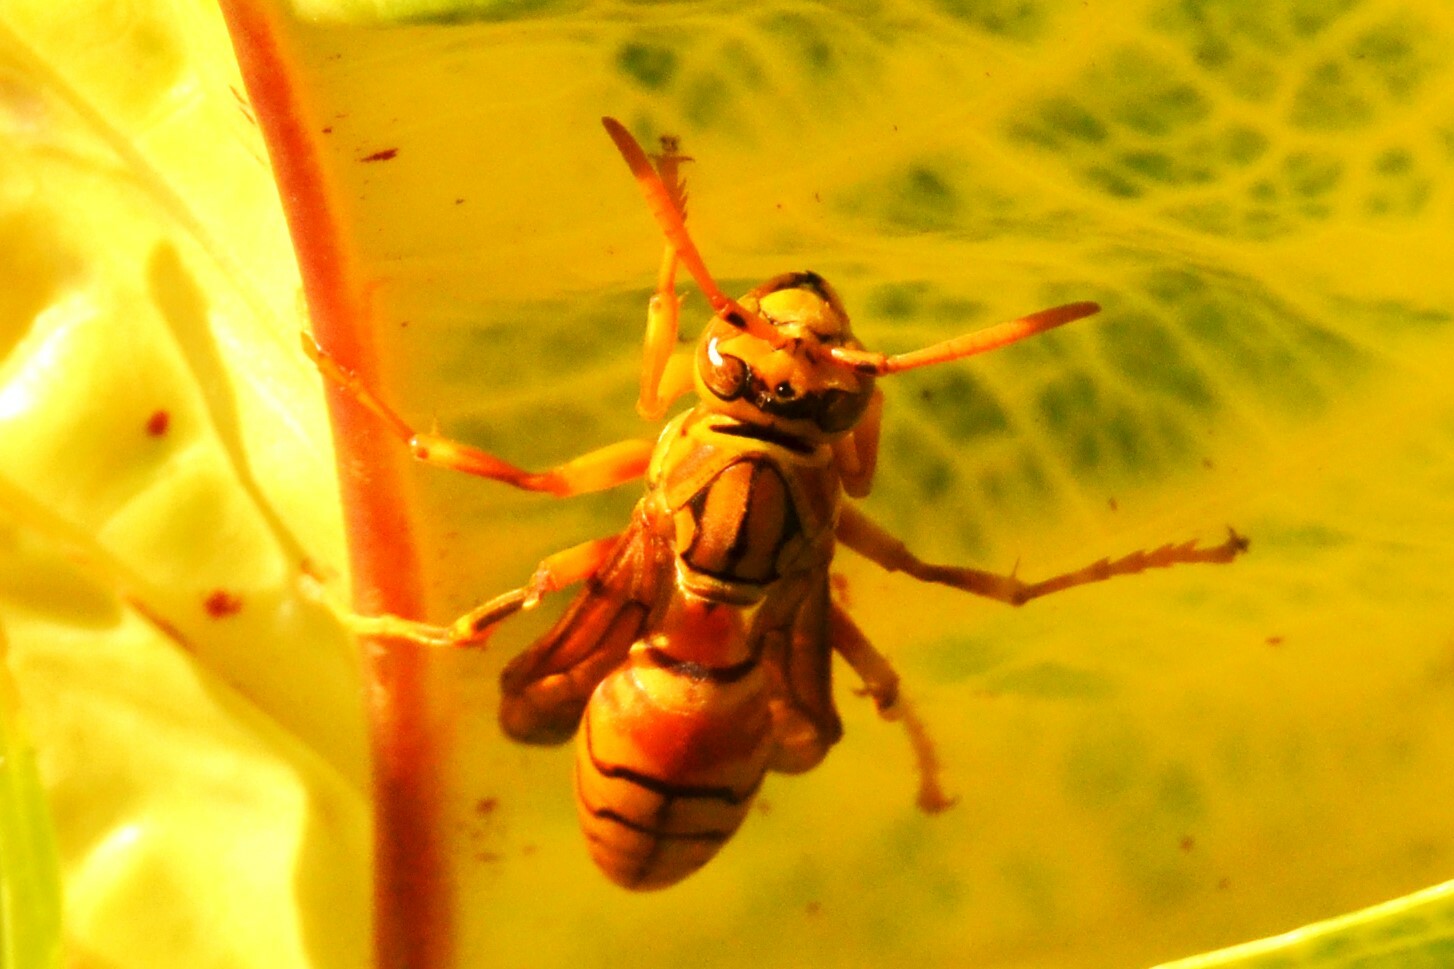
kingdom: Animalia
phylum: Arthropoda
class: Insecta
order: Hymenoptera
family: Eumenidae
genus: Polistes
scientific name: Polistes olivaceus
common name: Paper wasp
